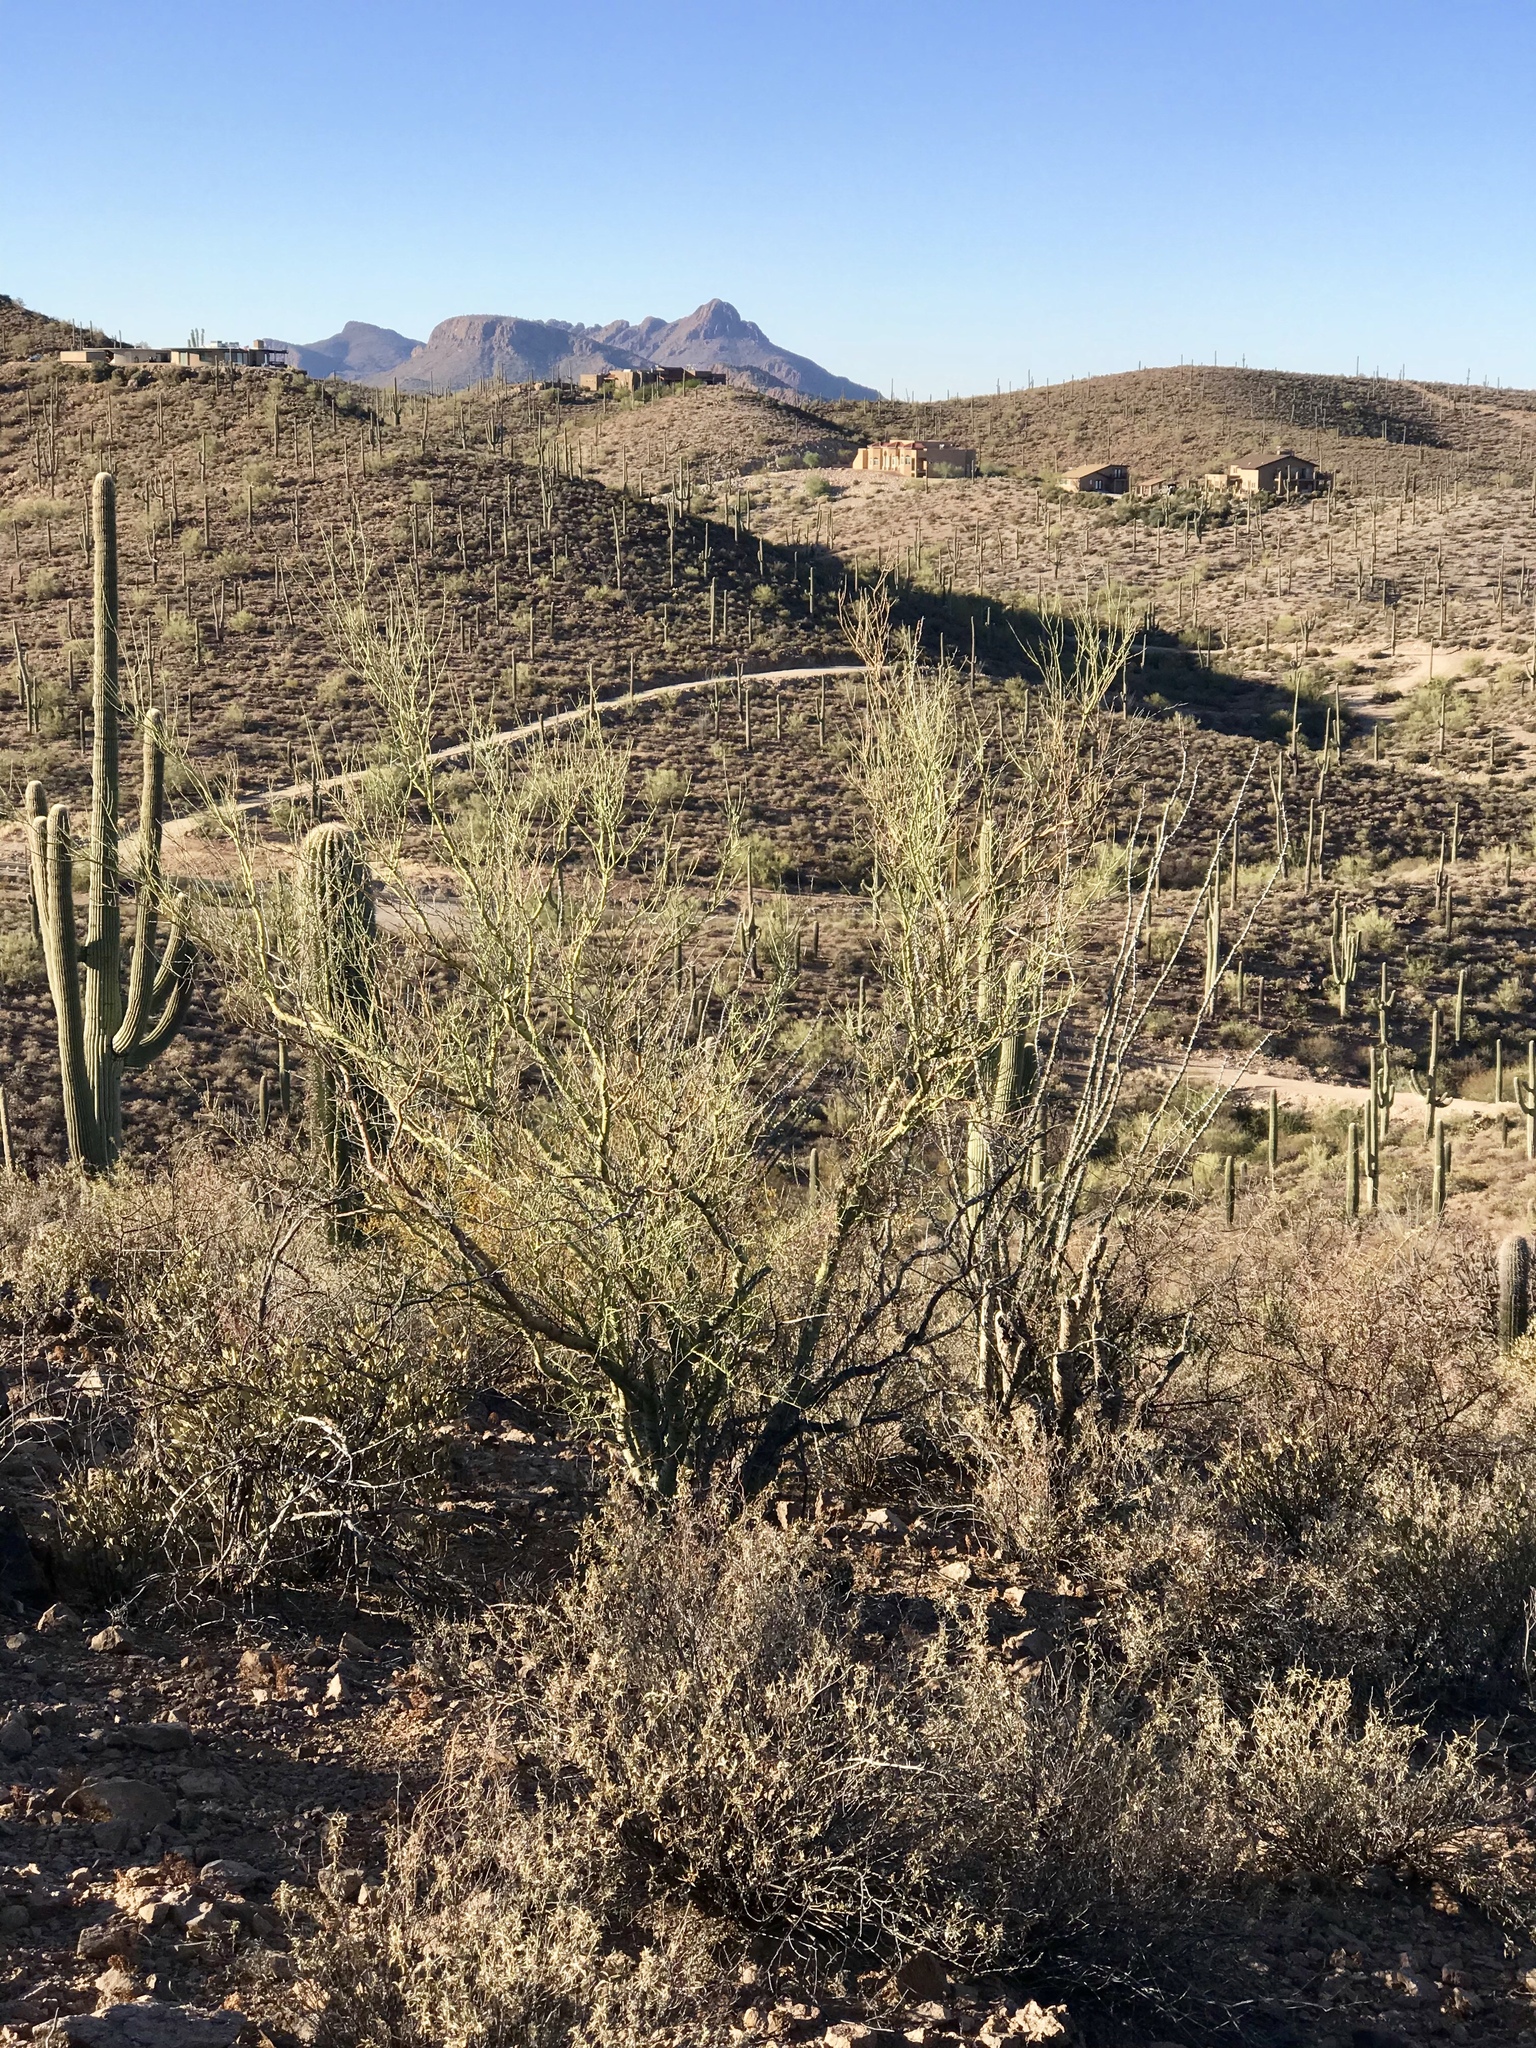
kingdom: Plantae
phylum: Tracheophyta
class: Magnoliopsida
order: Fabales
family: Fabaceae
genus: Parkinsonia
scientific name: Parkinsonia microphylla
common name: Yellow paloverde
